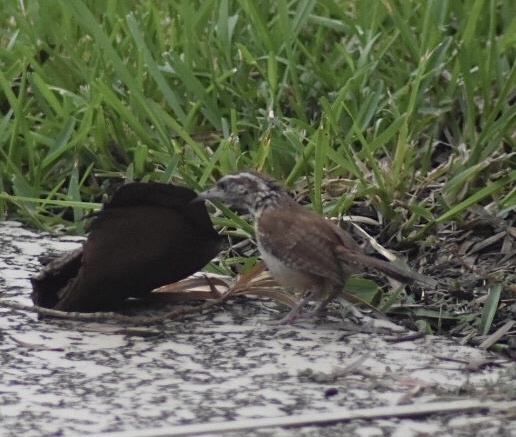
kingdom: Animalia
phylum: Chordata
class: Aves
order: Passeriformes
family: Troglodytidae
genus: Thryothorus
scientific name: Thryothorus ludovicianus
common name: Carolina wren
